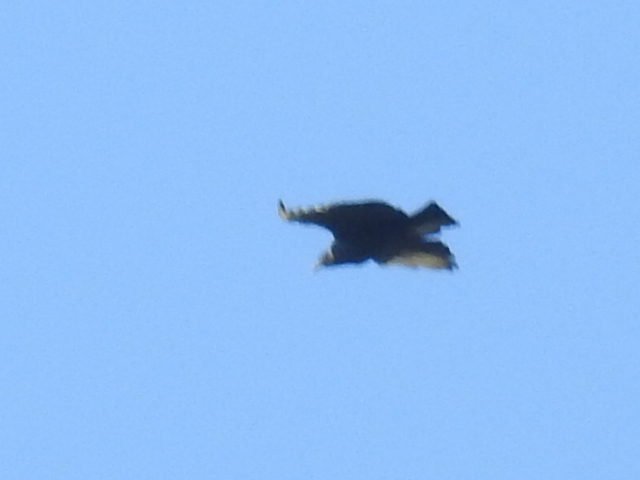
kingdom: Animalia
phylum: Chordata
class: Aves
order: Accipitriformes
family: Cathartidae
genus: Coragyps
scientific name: Coragyps atratus
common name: Black vulture
